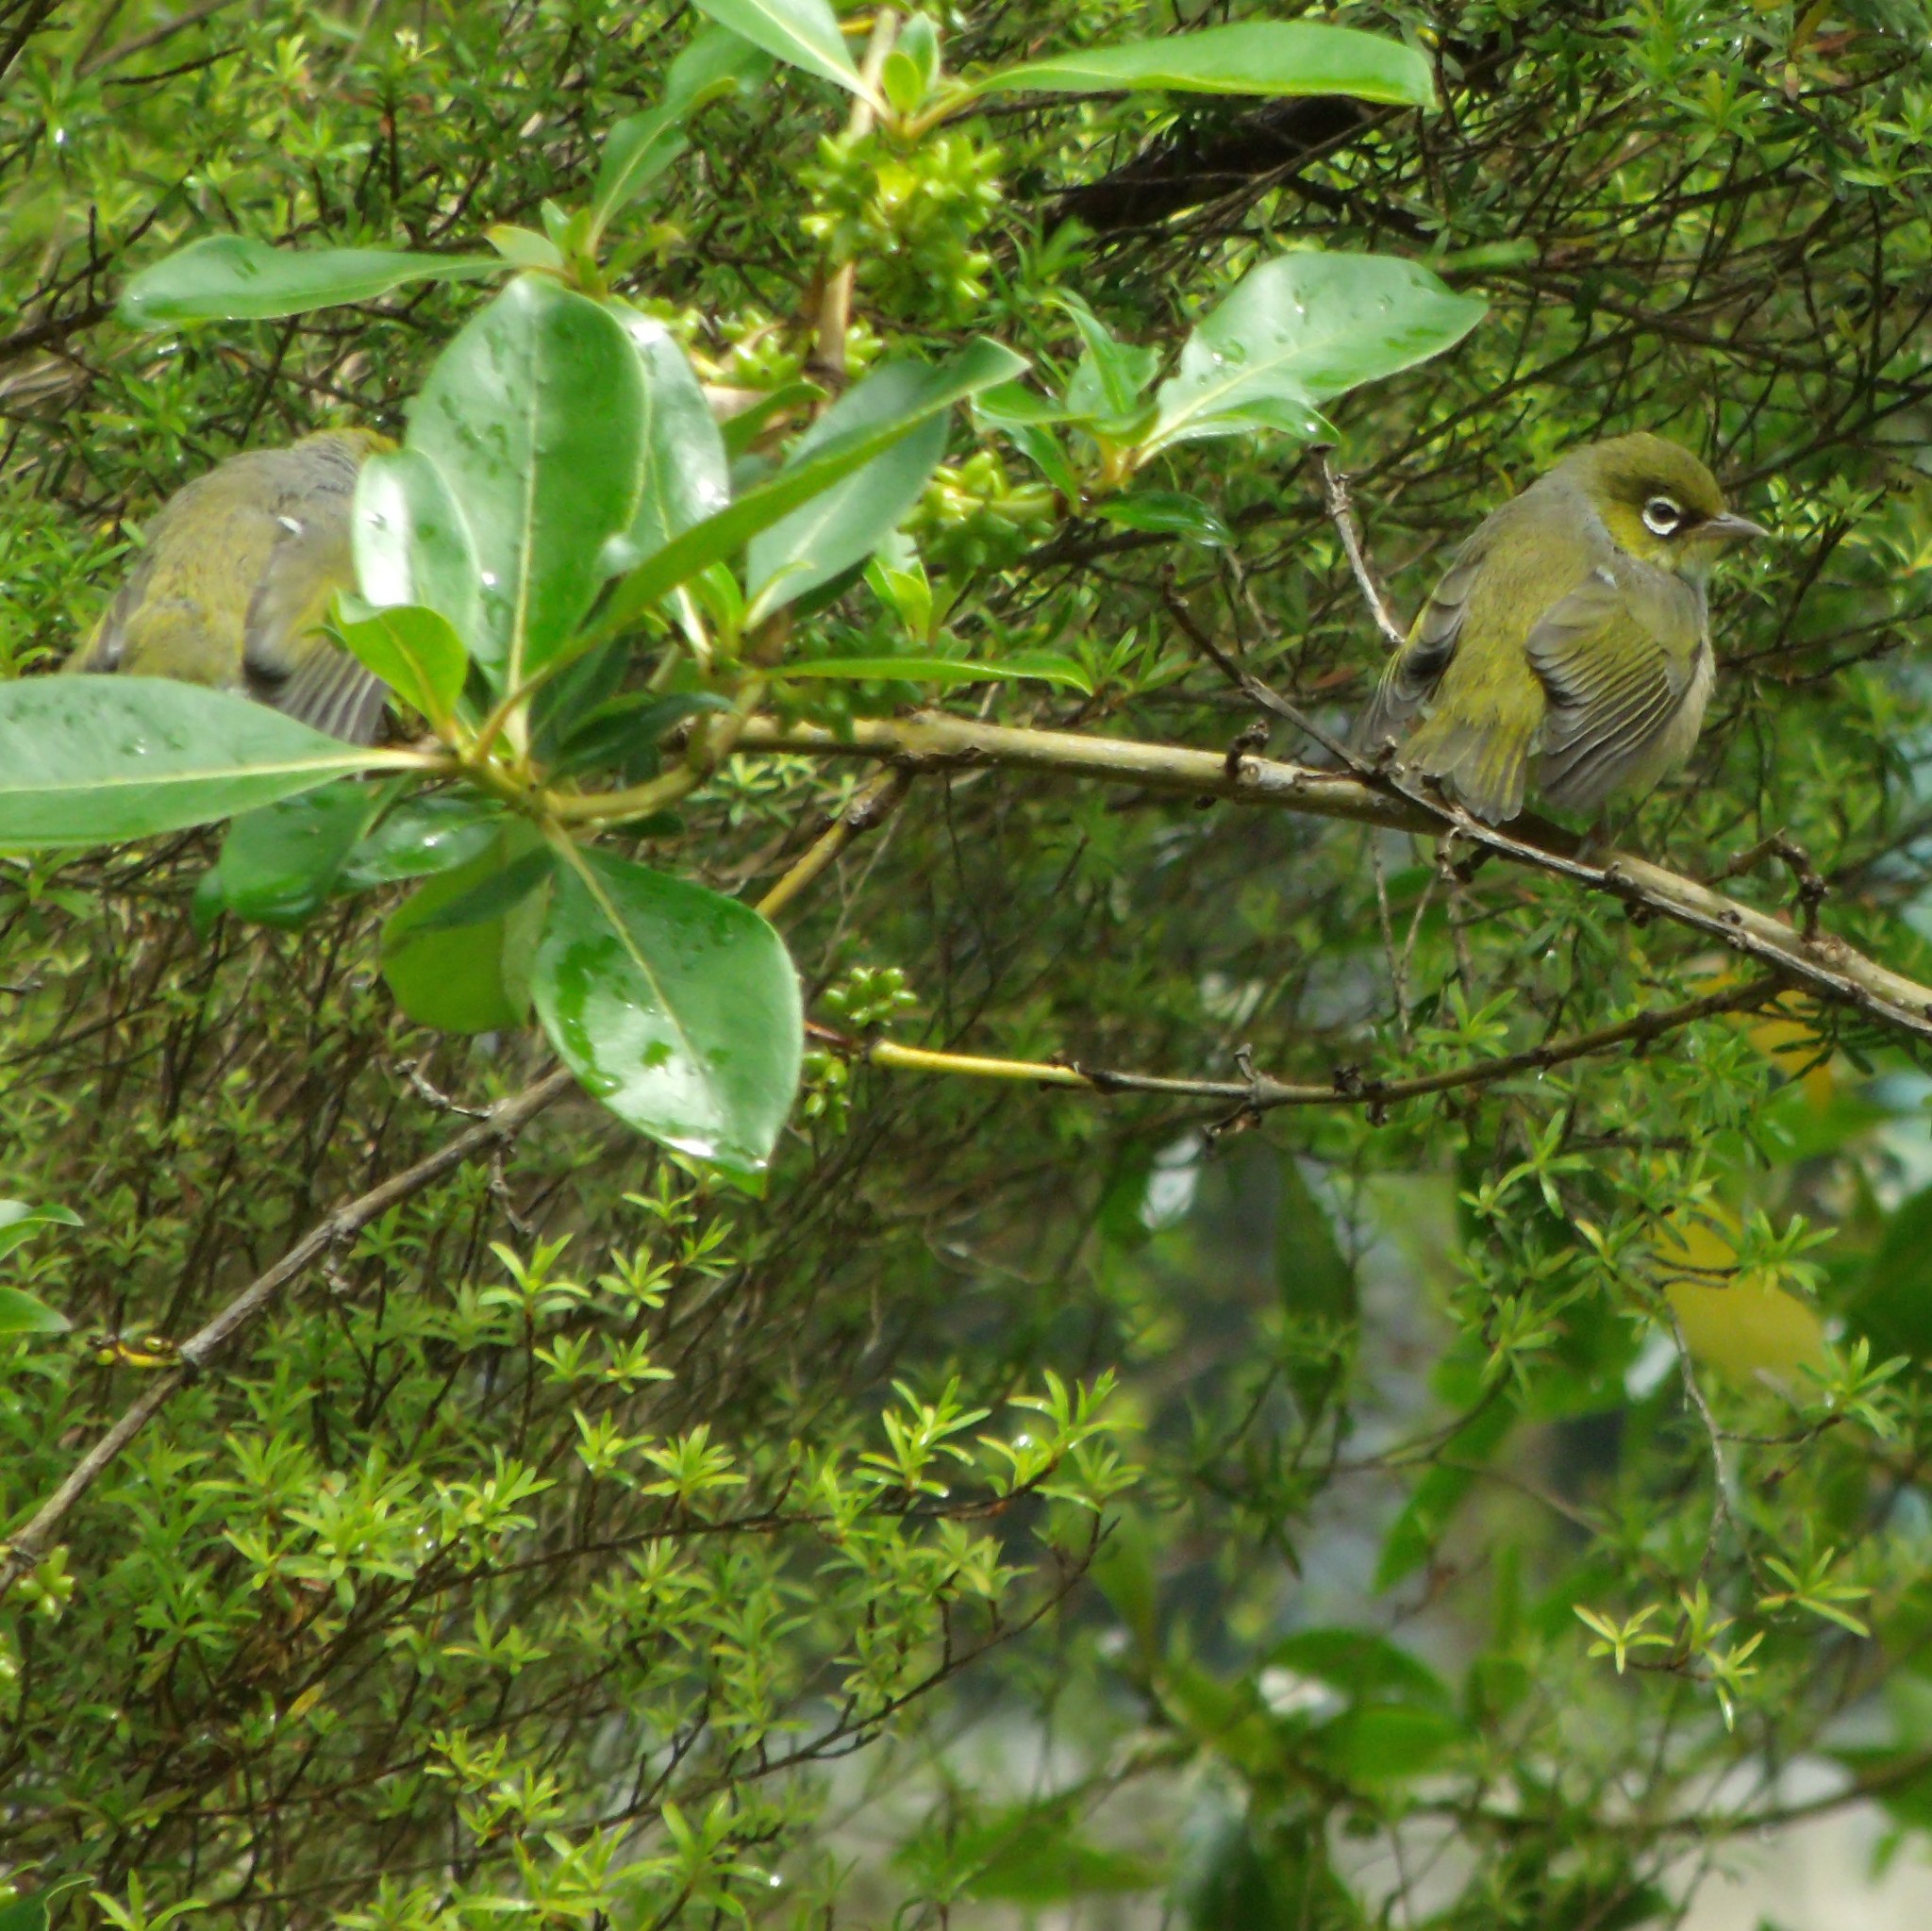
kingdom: Animalia
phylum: Chordata
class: Aves
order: Passeriformes
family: Zosteropidae
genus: Zosterops
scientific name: Zosterops lateralis
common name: Silvereye
